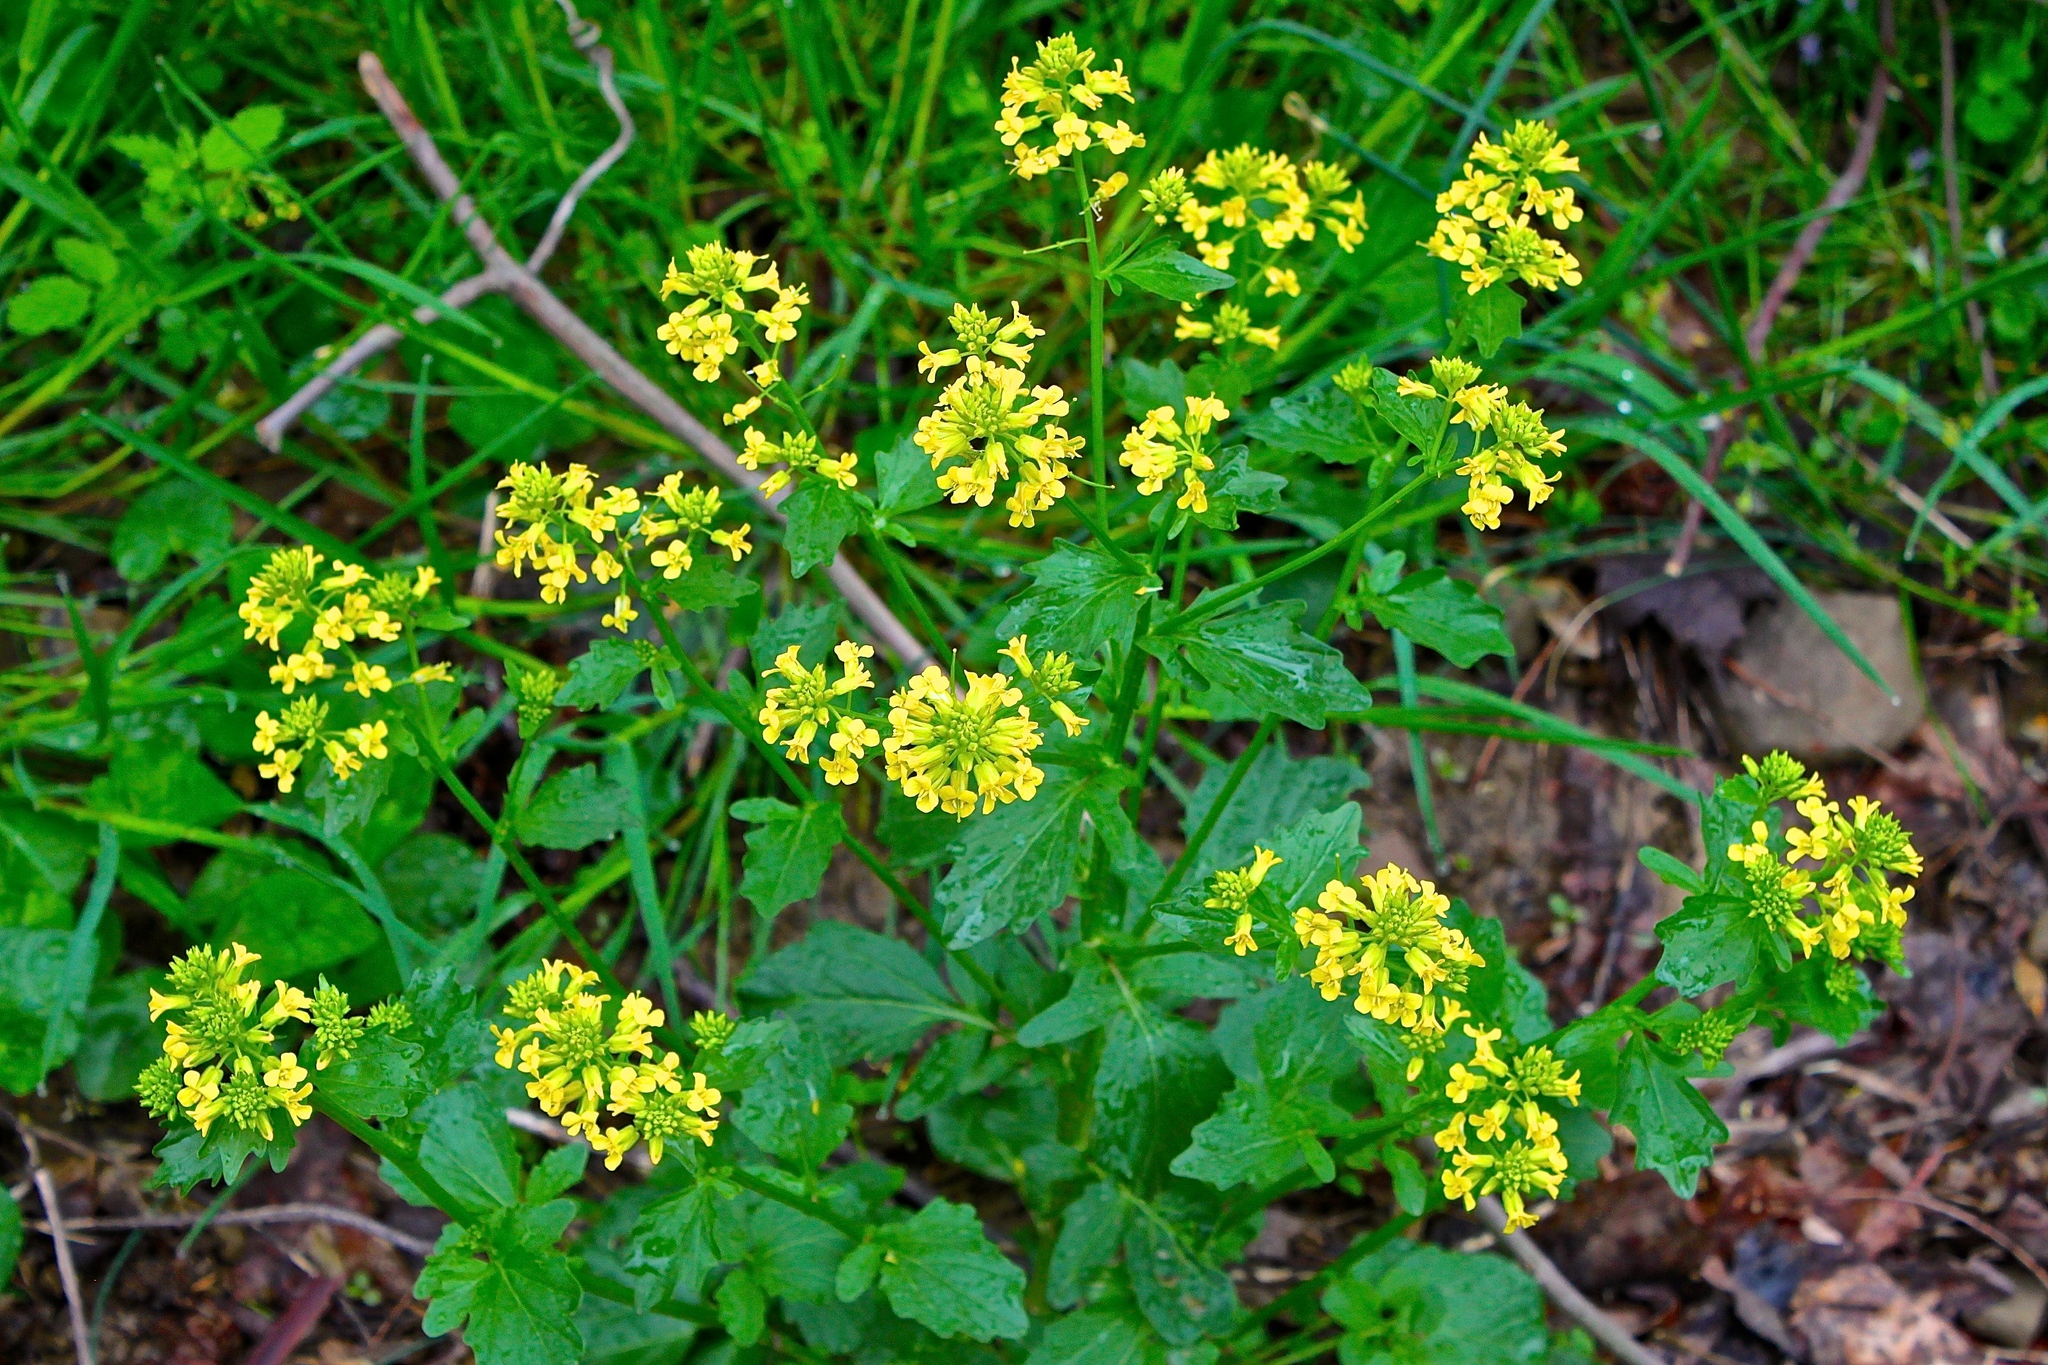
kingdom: Plantae
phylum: Tracheophyta
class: Magnoliopsida
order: Brassicales
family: Brassicaceae
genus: Barbarea
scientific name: Barbarea vulgaris
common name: Cressy-greens
